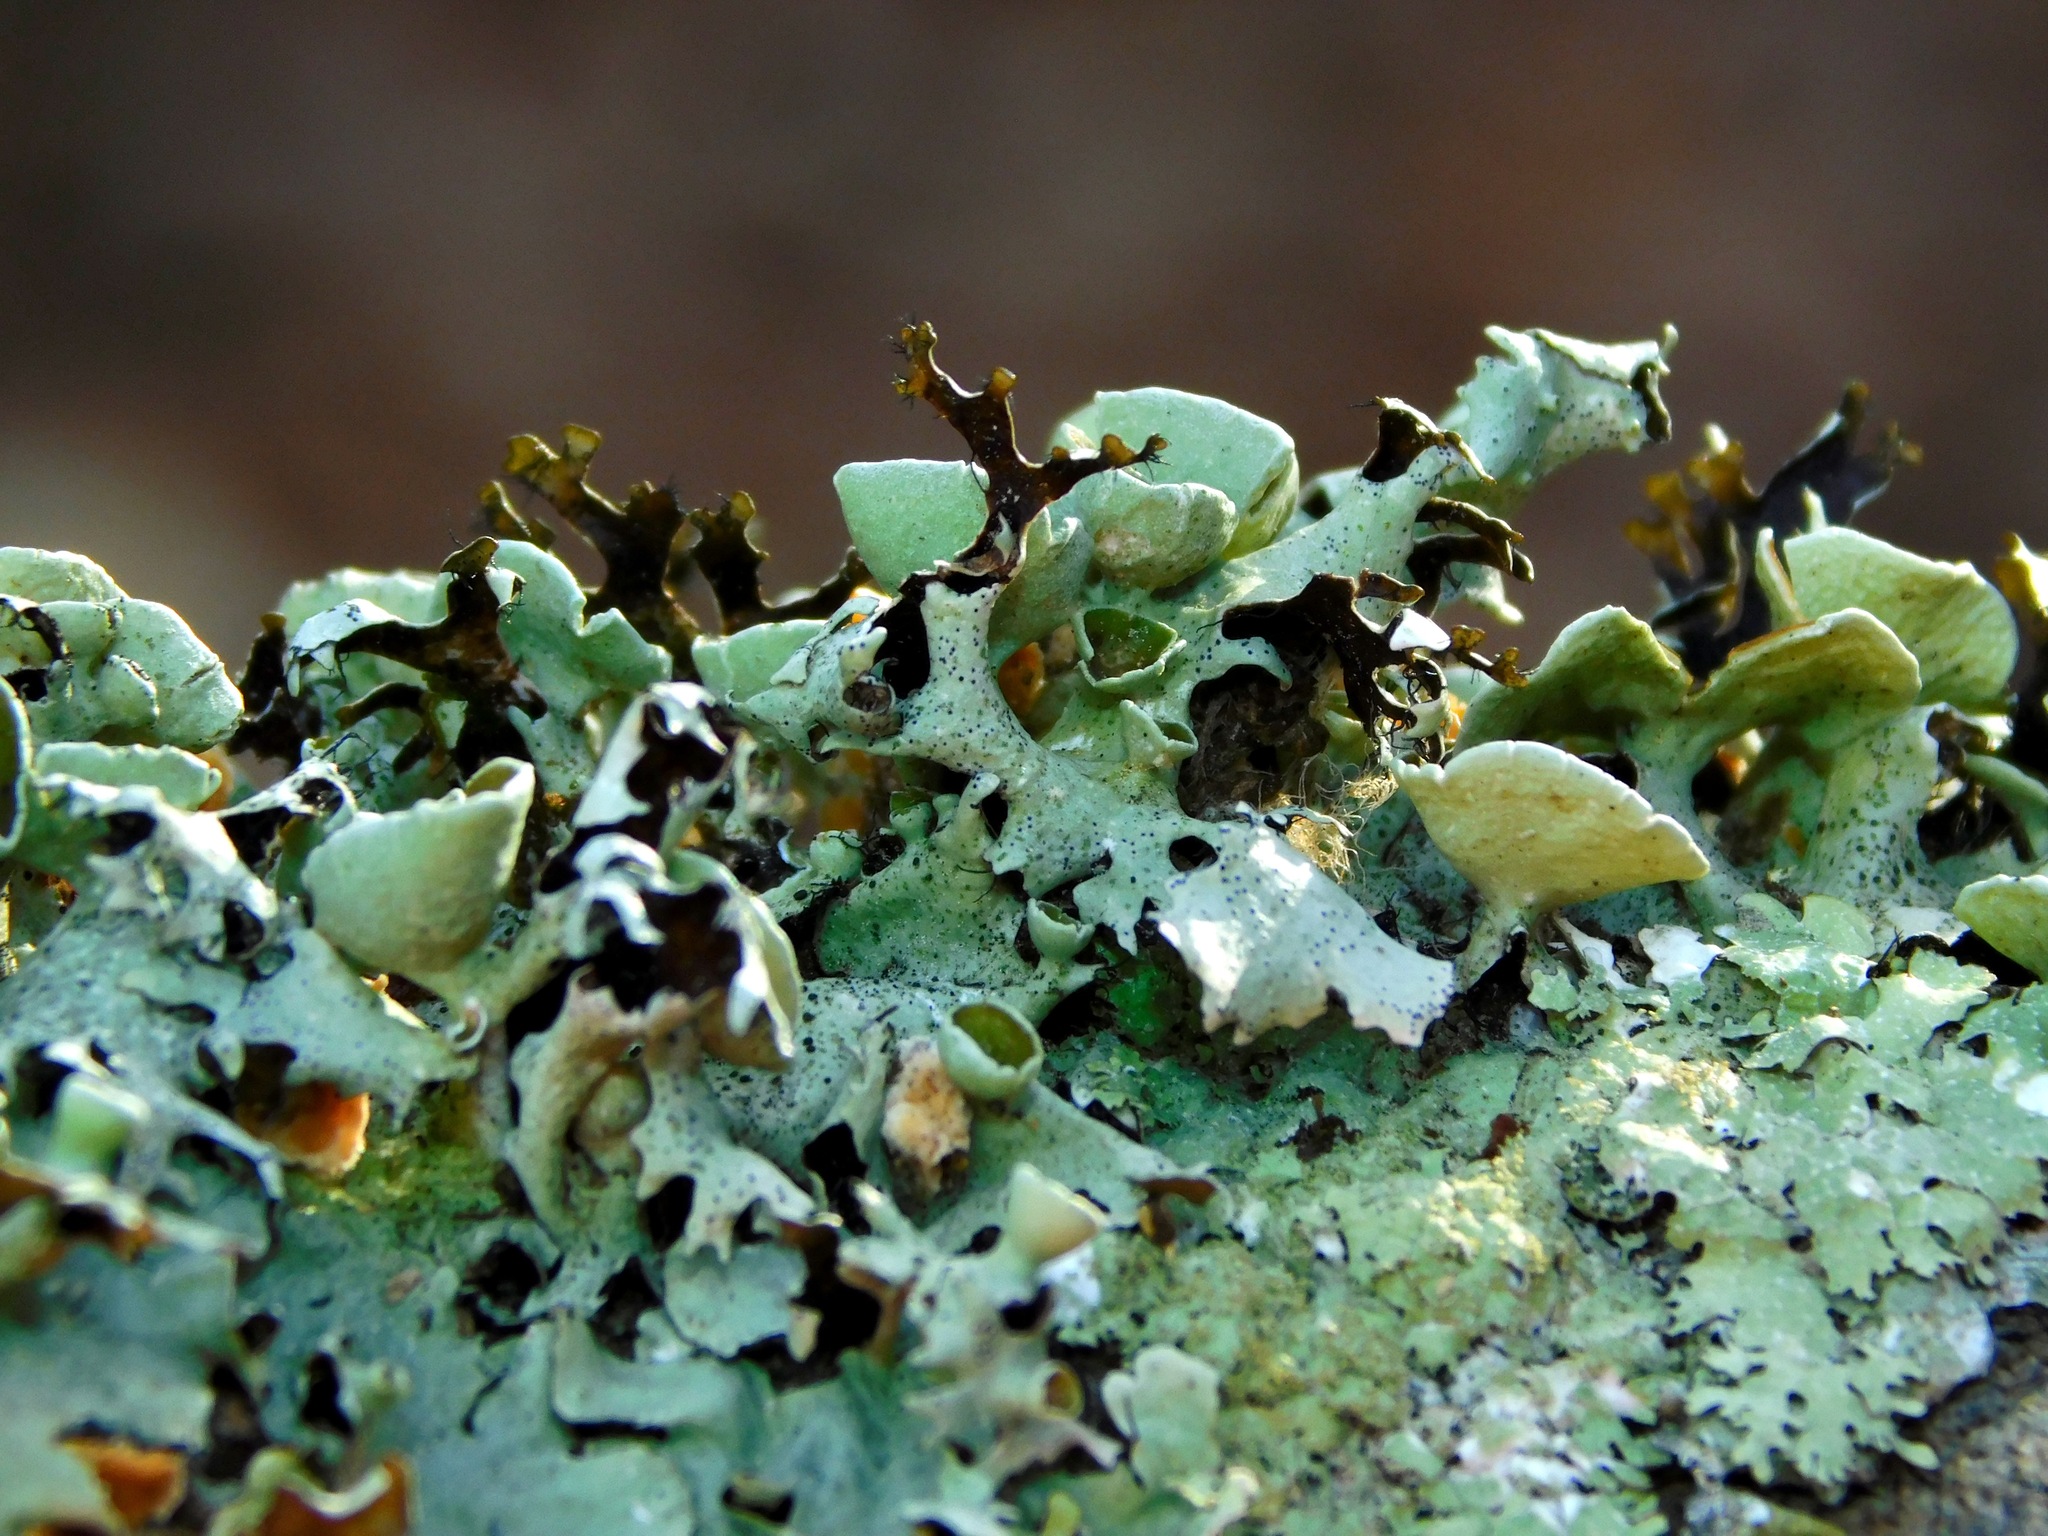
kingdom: Fungi
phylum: Ascomycota
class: Lecanoromycetes
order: Lecanorales
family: Parmeliaceae
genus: Parmotrema
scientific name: Parmotrema cetratum
